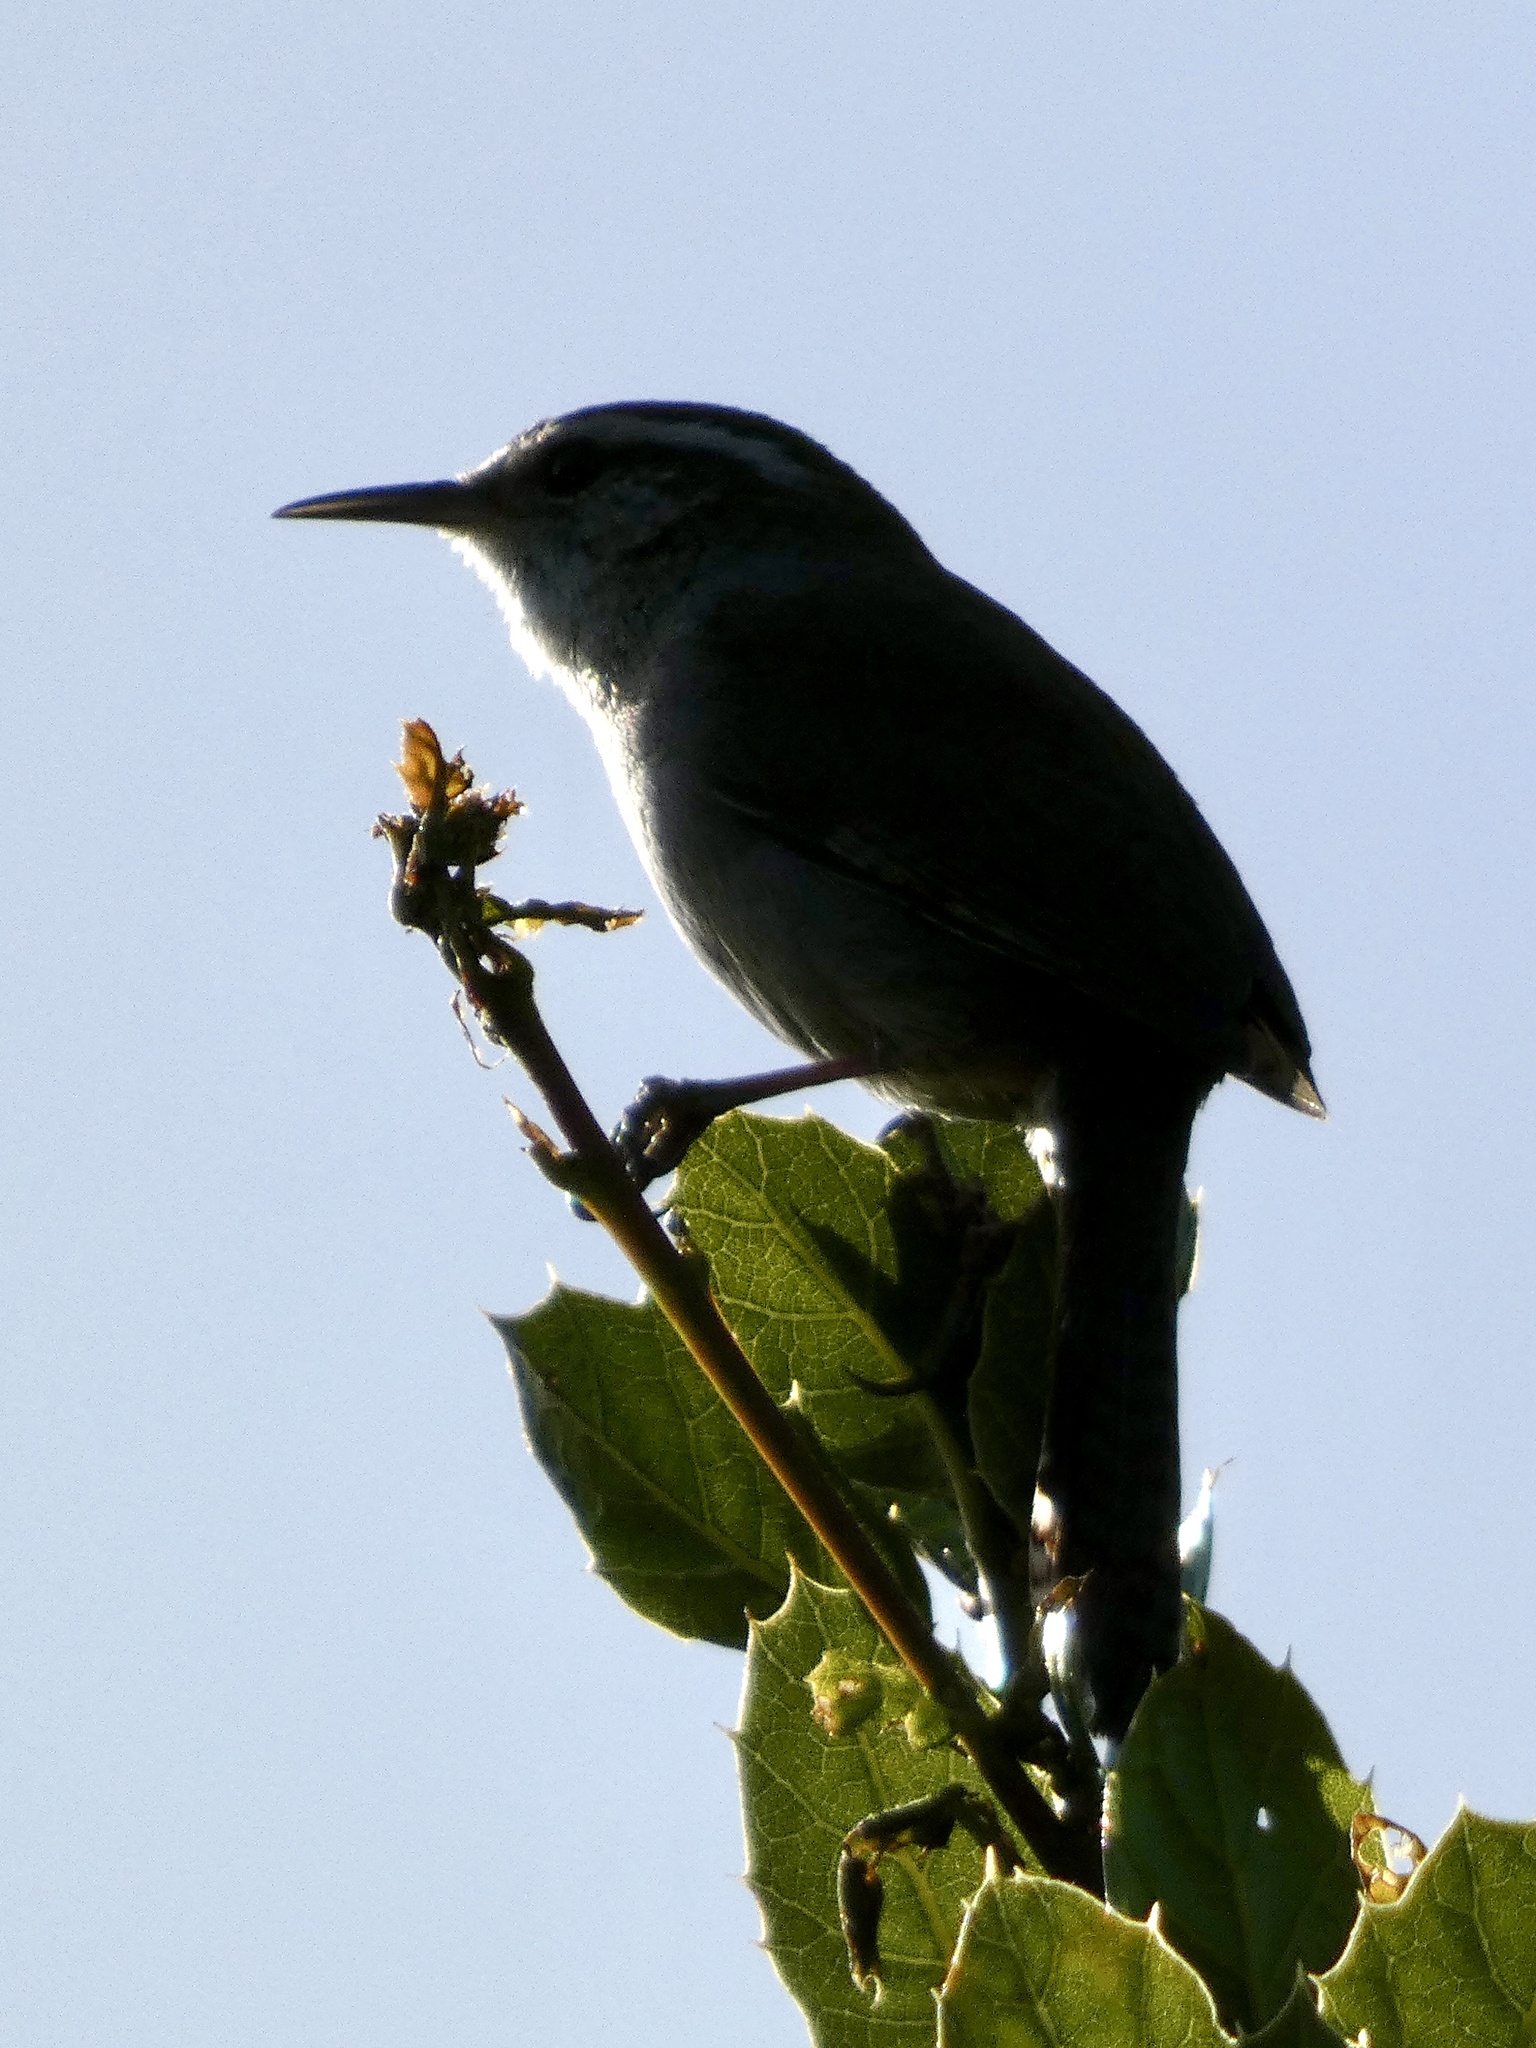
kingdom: Animalia
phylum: Chordata
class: Aves
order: Passeriformes
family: Troglodytidae
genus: Thryomanes
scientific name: Thryomanes bewickii
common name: Bewick's wren
